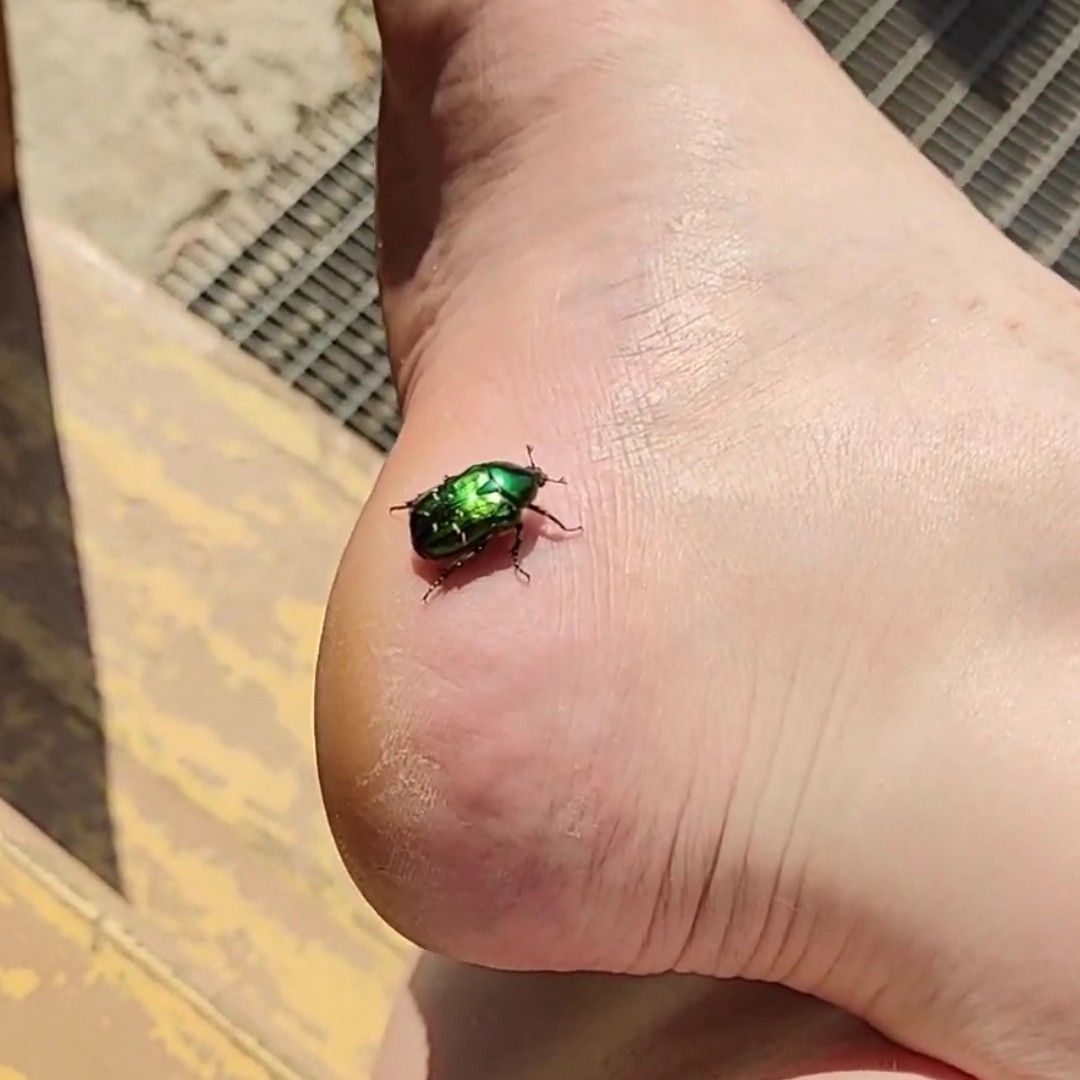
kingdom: Animalia
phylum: Arthropoda
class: Insecta
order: Coleoptera
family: Scarabaeidae
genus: Cetonia
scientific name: Cetonia aurata
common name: Rose chafer
